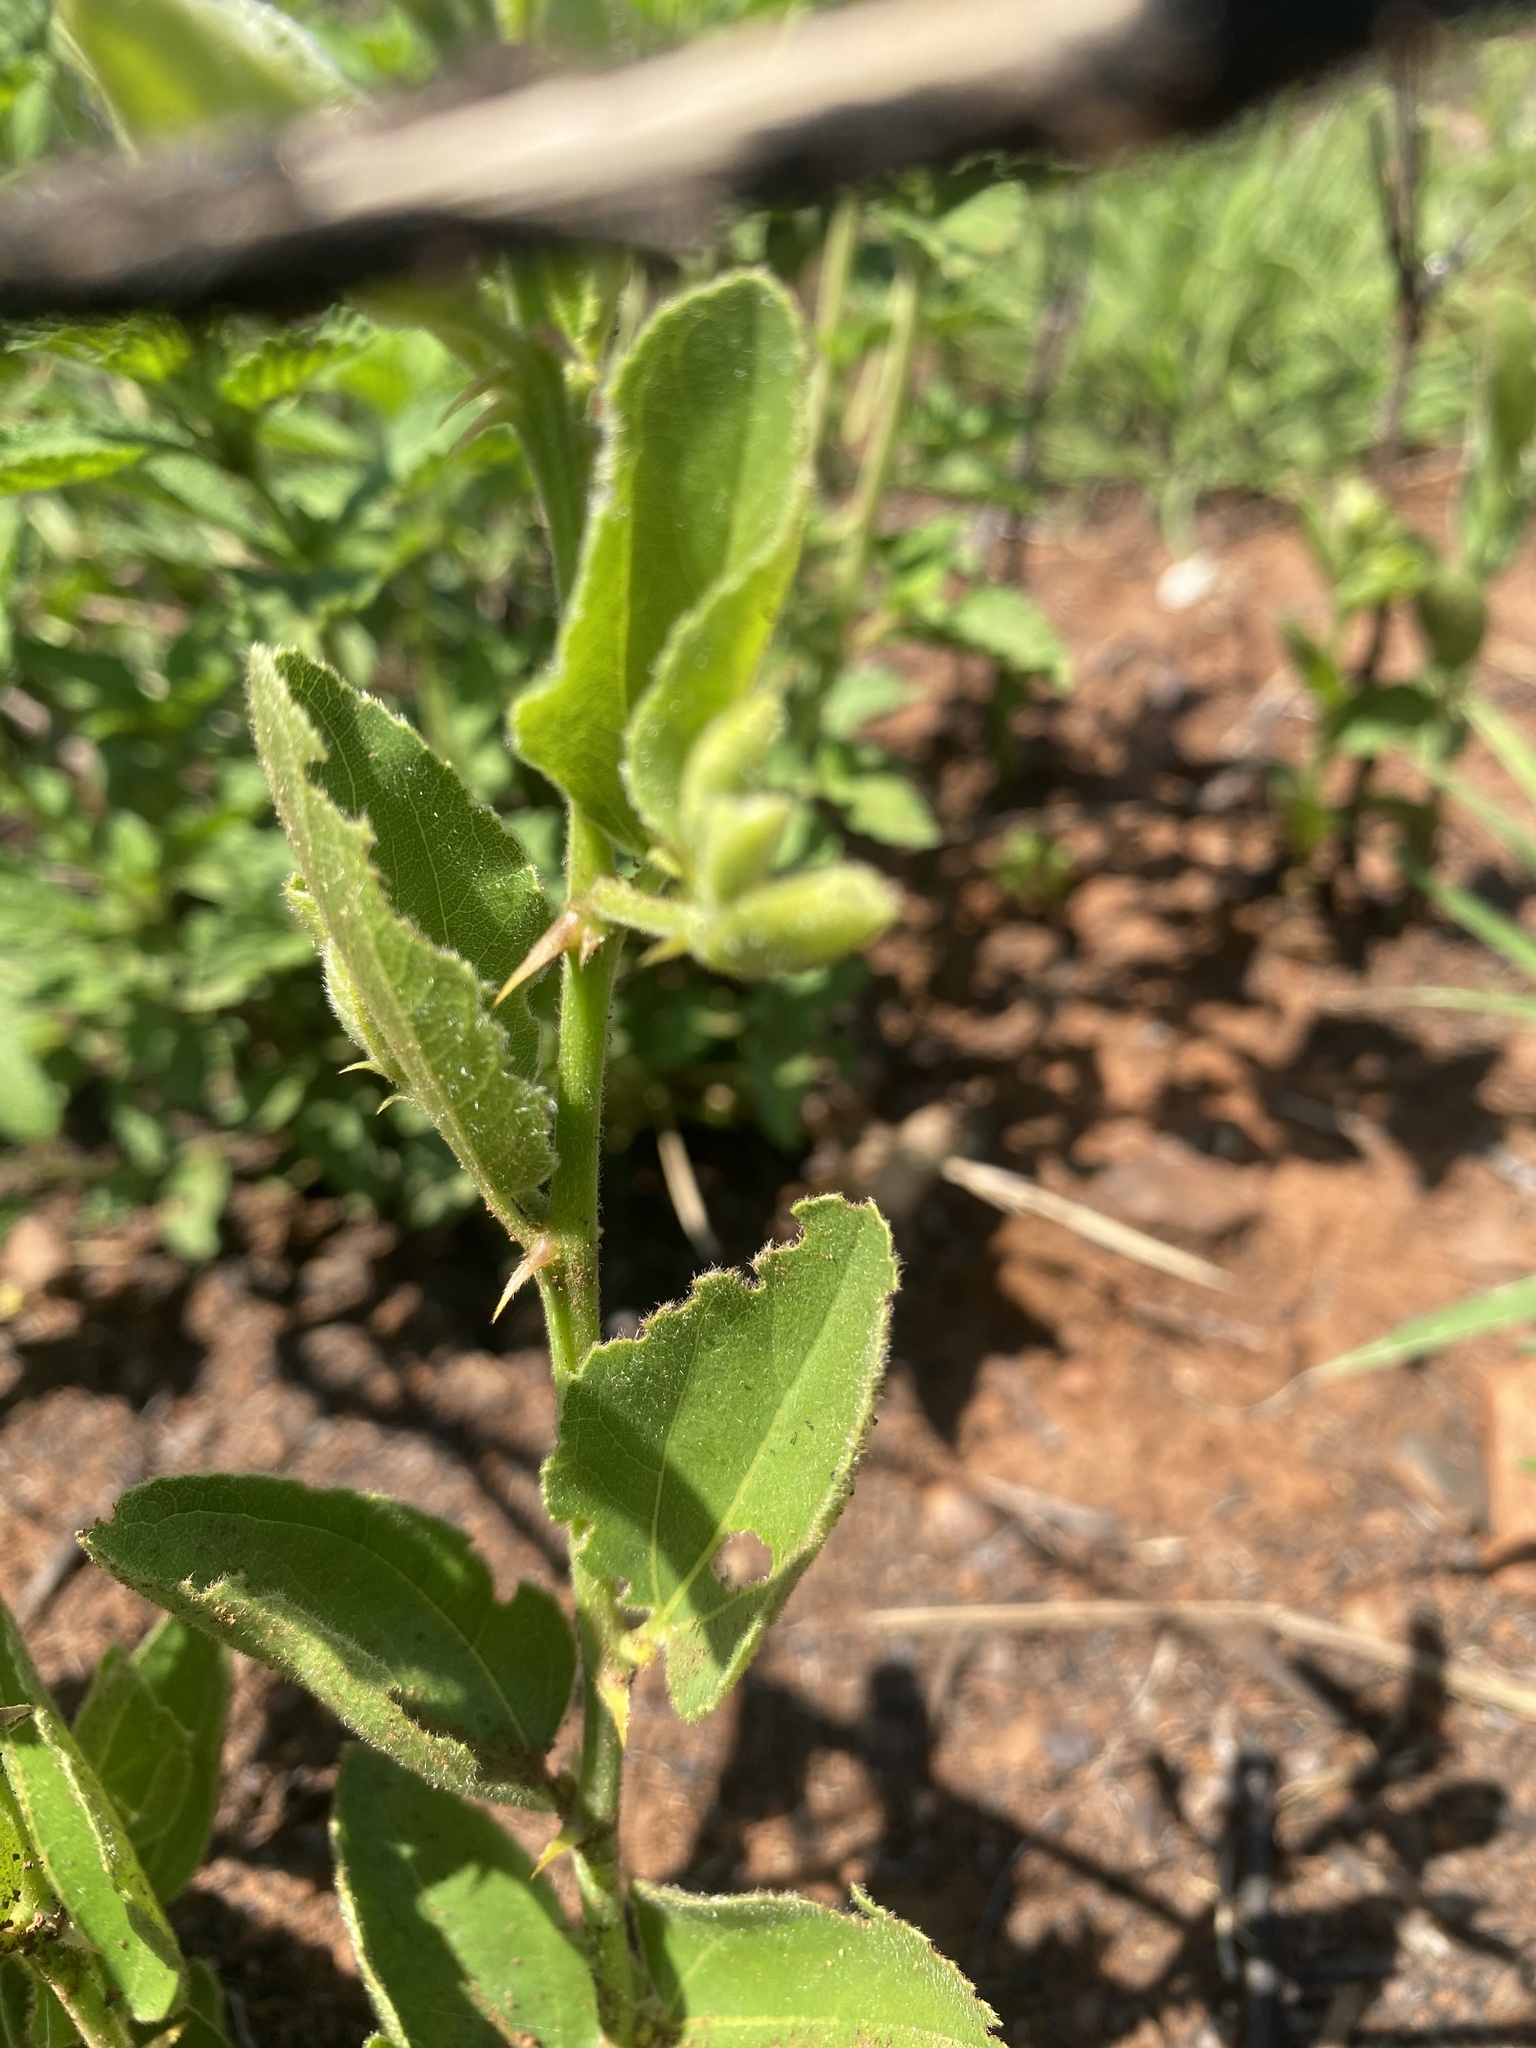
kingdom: Plantae
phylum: Tracheophyta
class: Magnoliopsida
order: Rosales
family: Rhamnaceae
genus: Ziziphus
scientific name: Ziziphus zeyheriana
